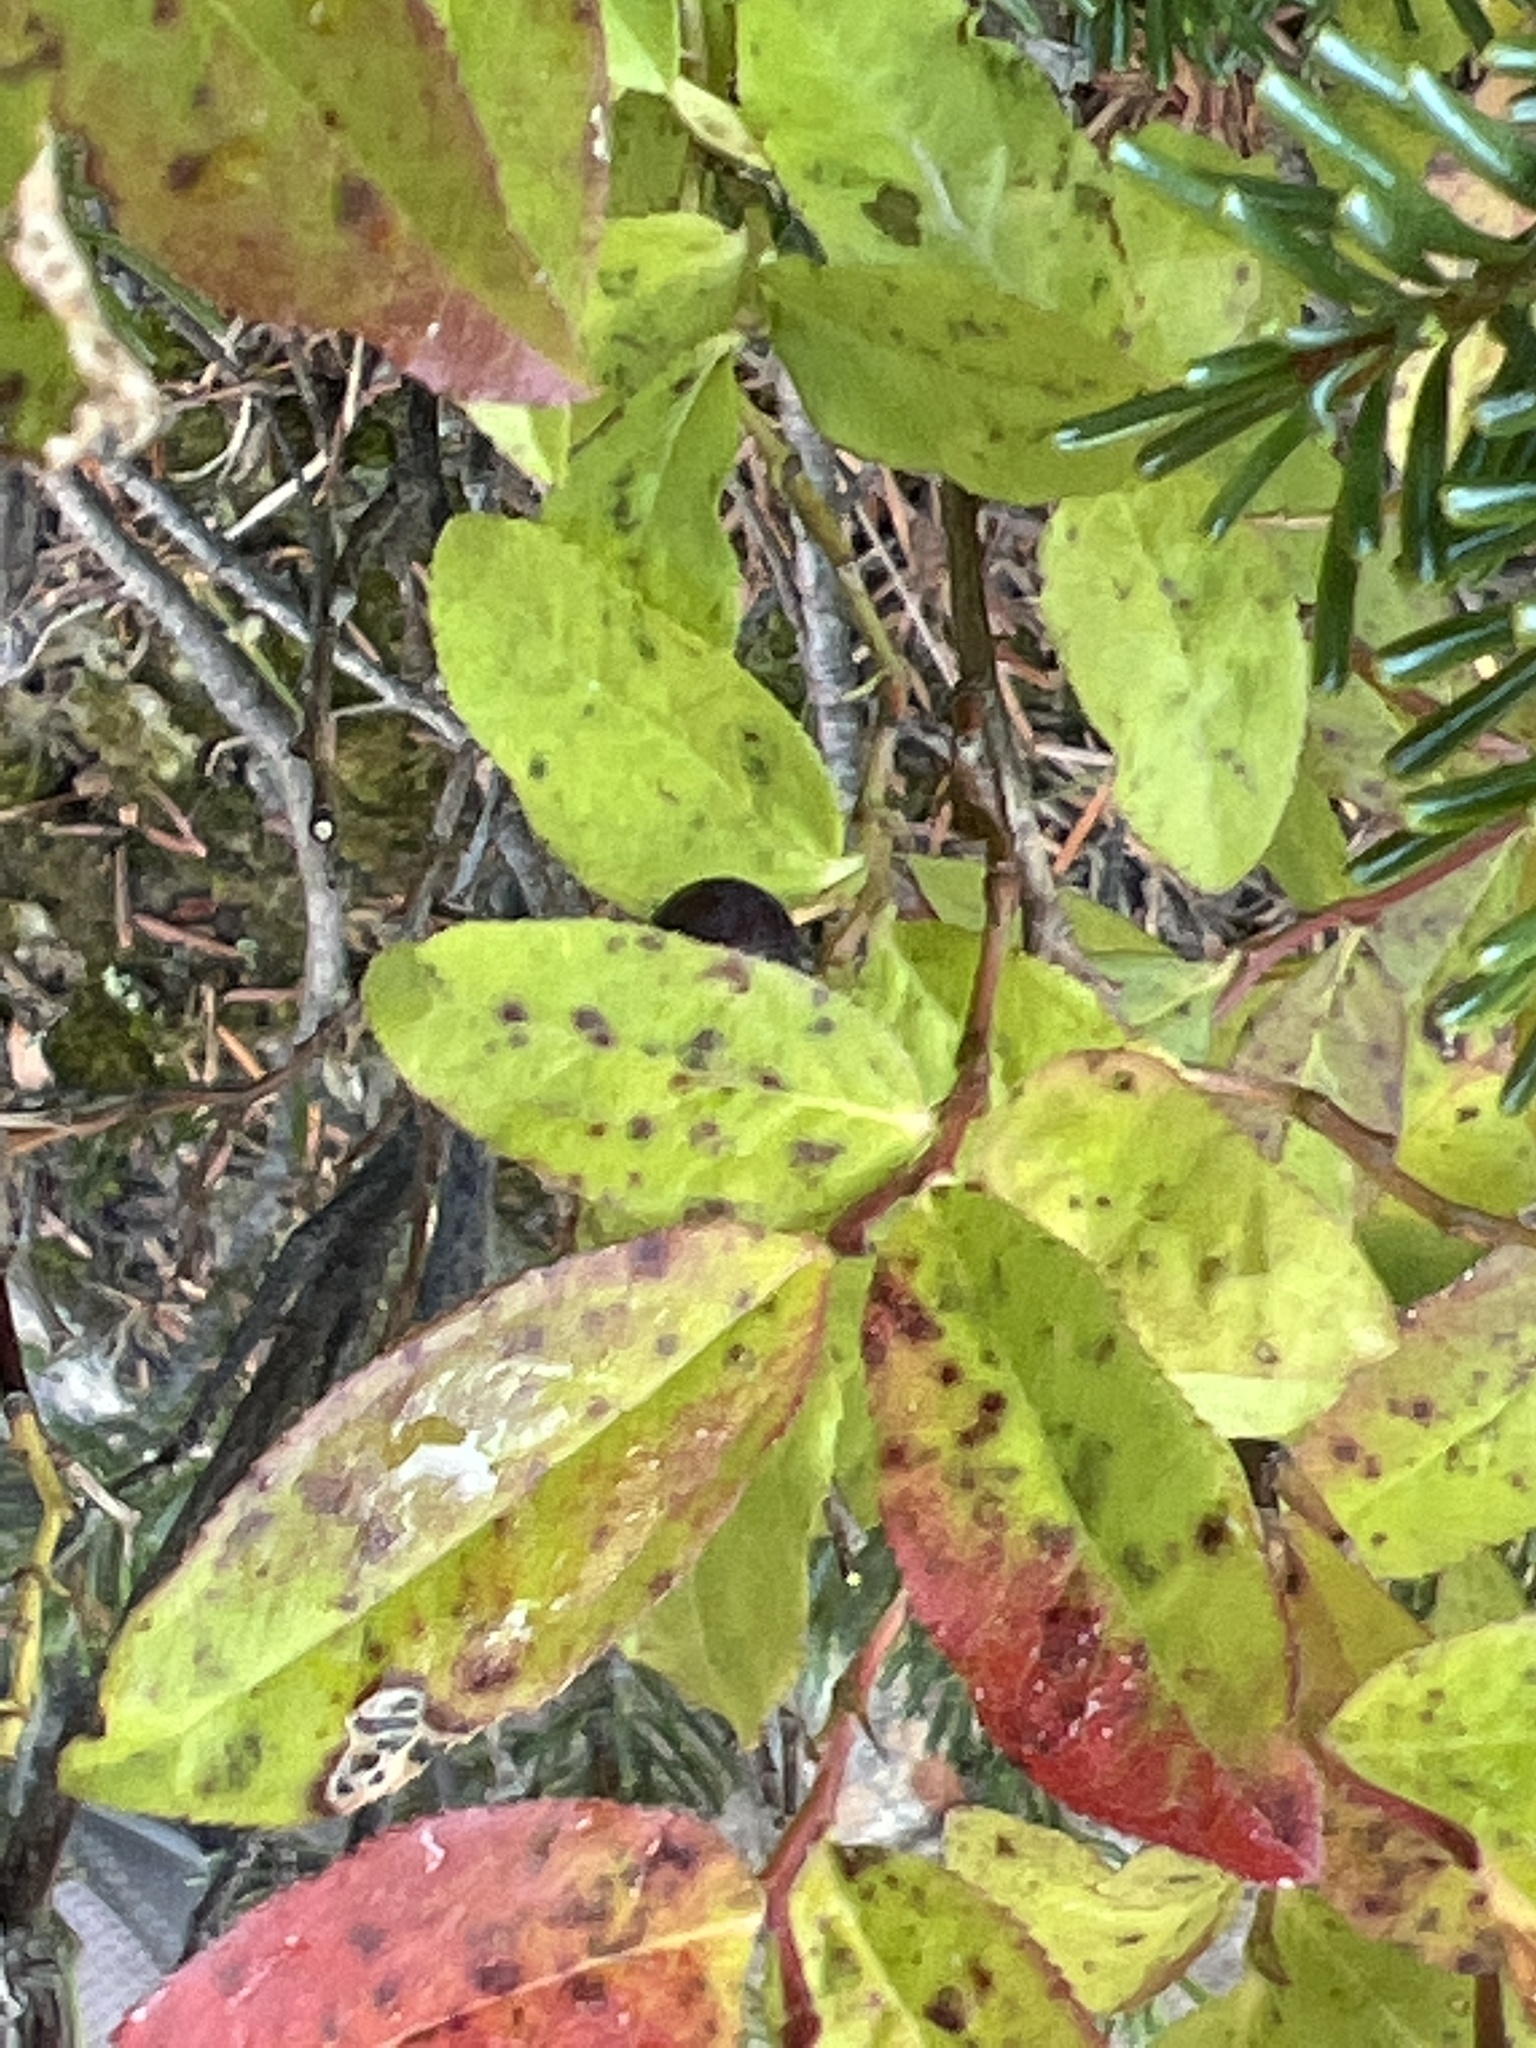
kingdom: Plantae
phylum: Tracheophyta
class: Magnoliopsida
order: Ericales
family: Ericaceae
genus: Vaccinium
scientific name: Vaccinium membranaceum
